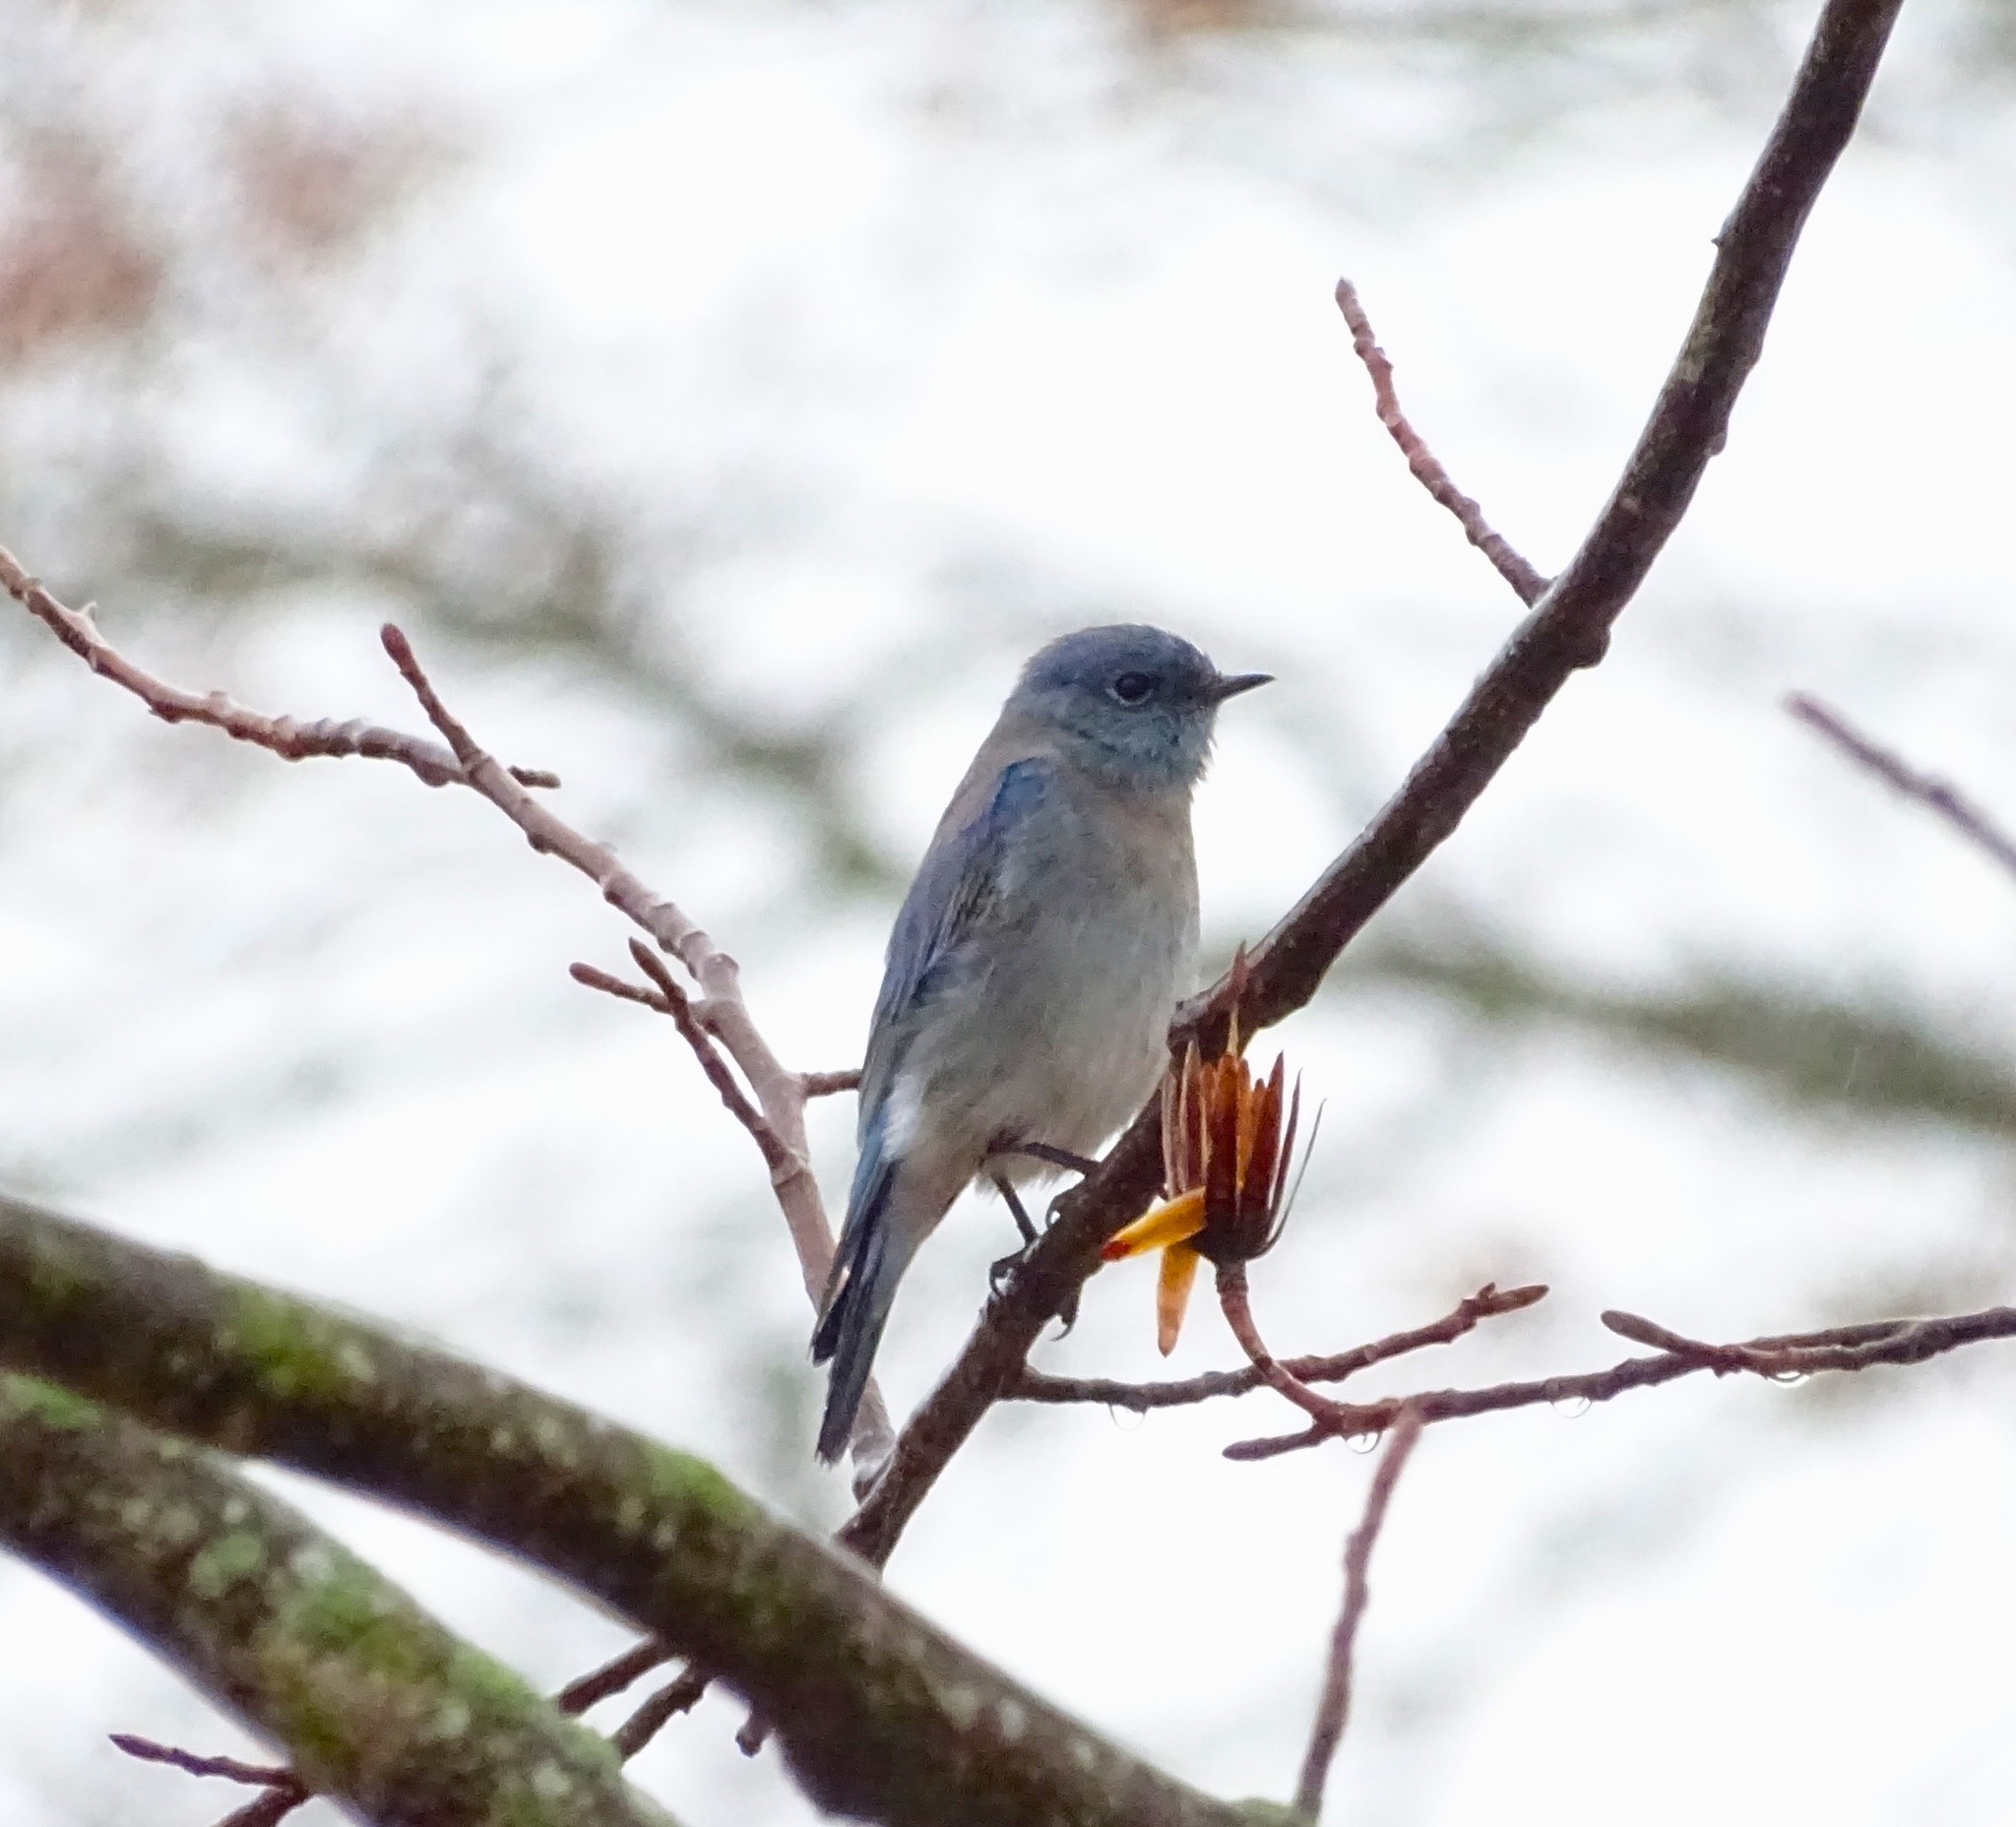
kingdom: Animalia
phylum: Chordata
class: Aves
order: Passeriformes
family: Turdidae
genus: Sialia
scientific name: Sialia currucoides
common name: Mountain bluebird
